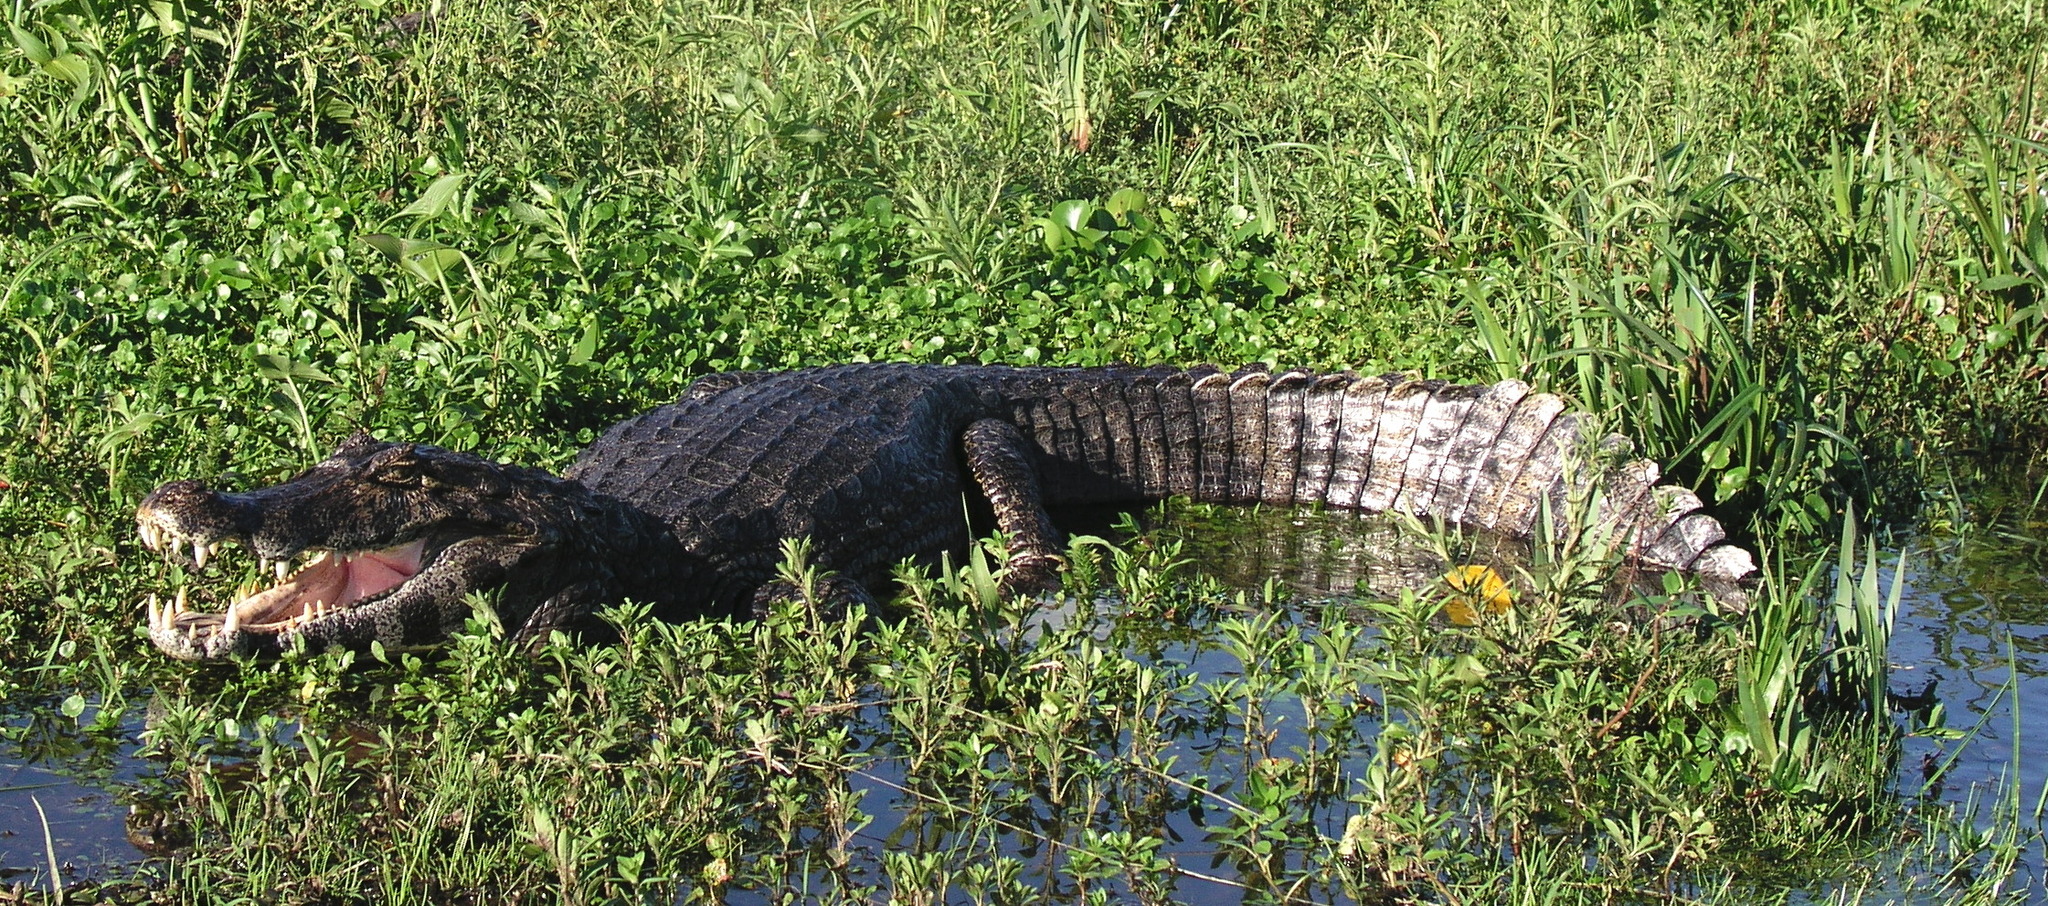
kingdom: Animalia
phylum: Chordata
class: Crocodylia
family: Alligatoridae
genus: Caiman
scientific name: Caiman yacare
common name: Yacare caiman
